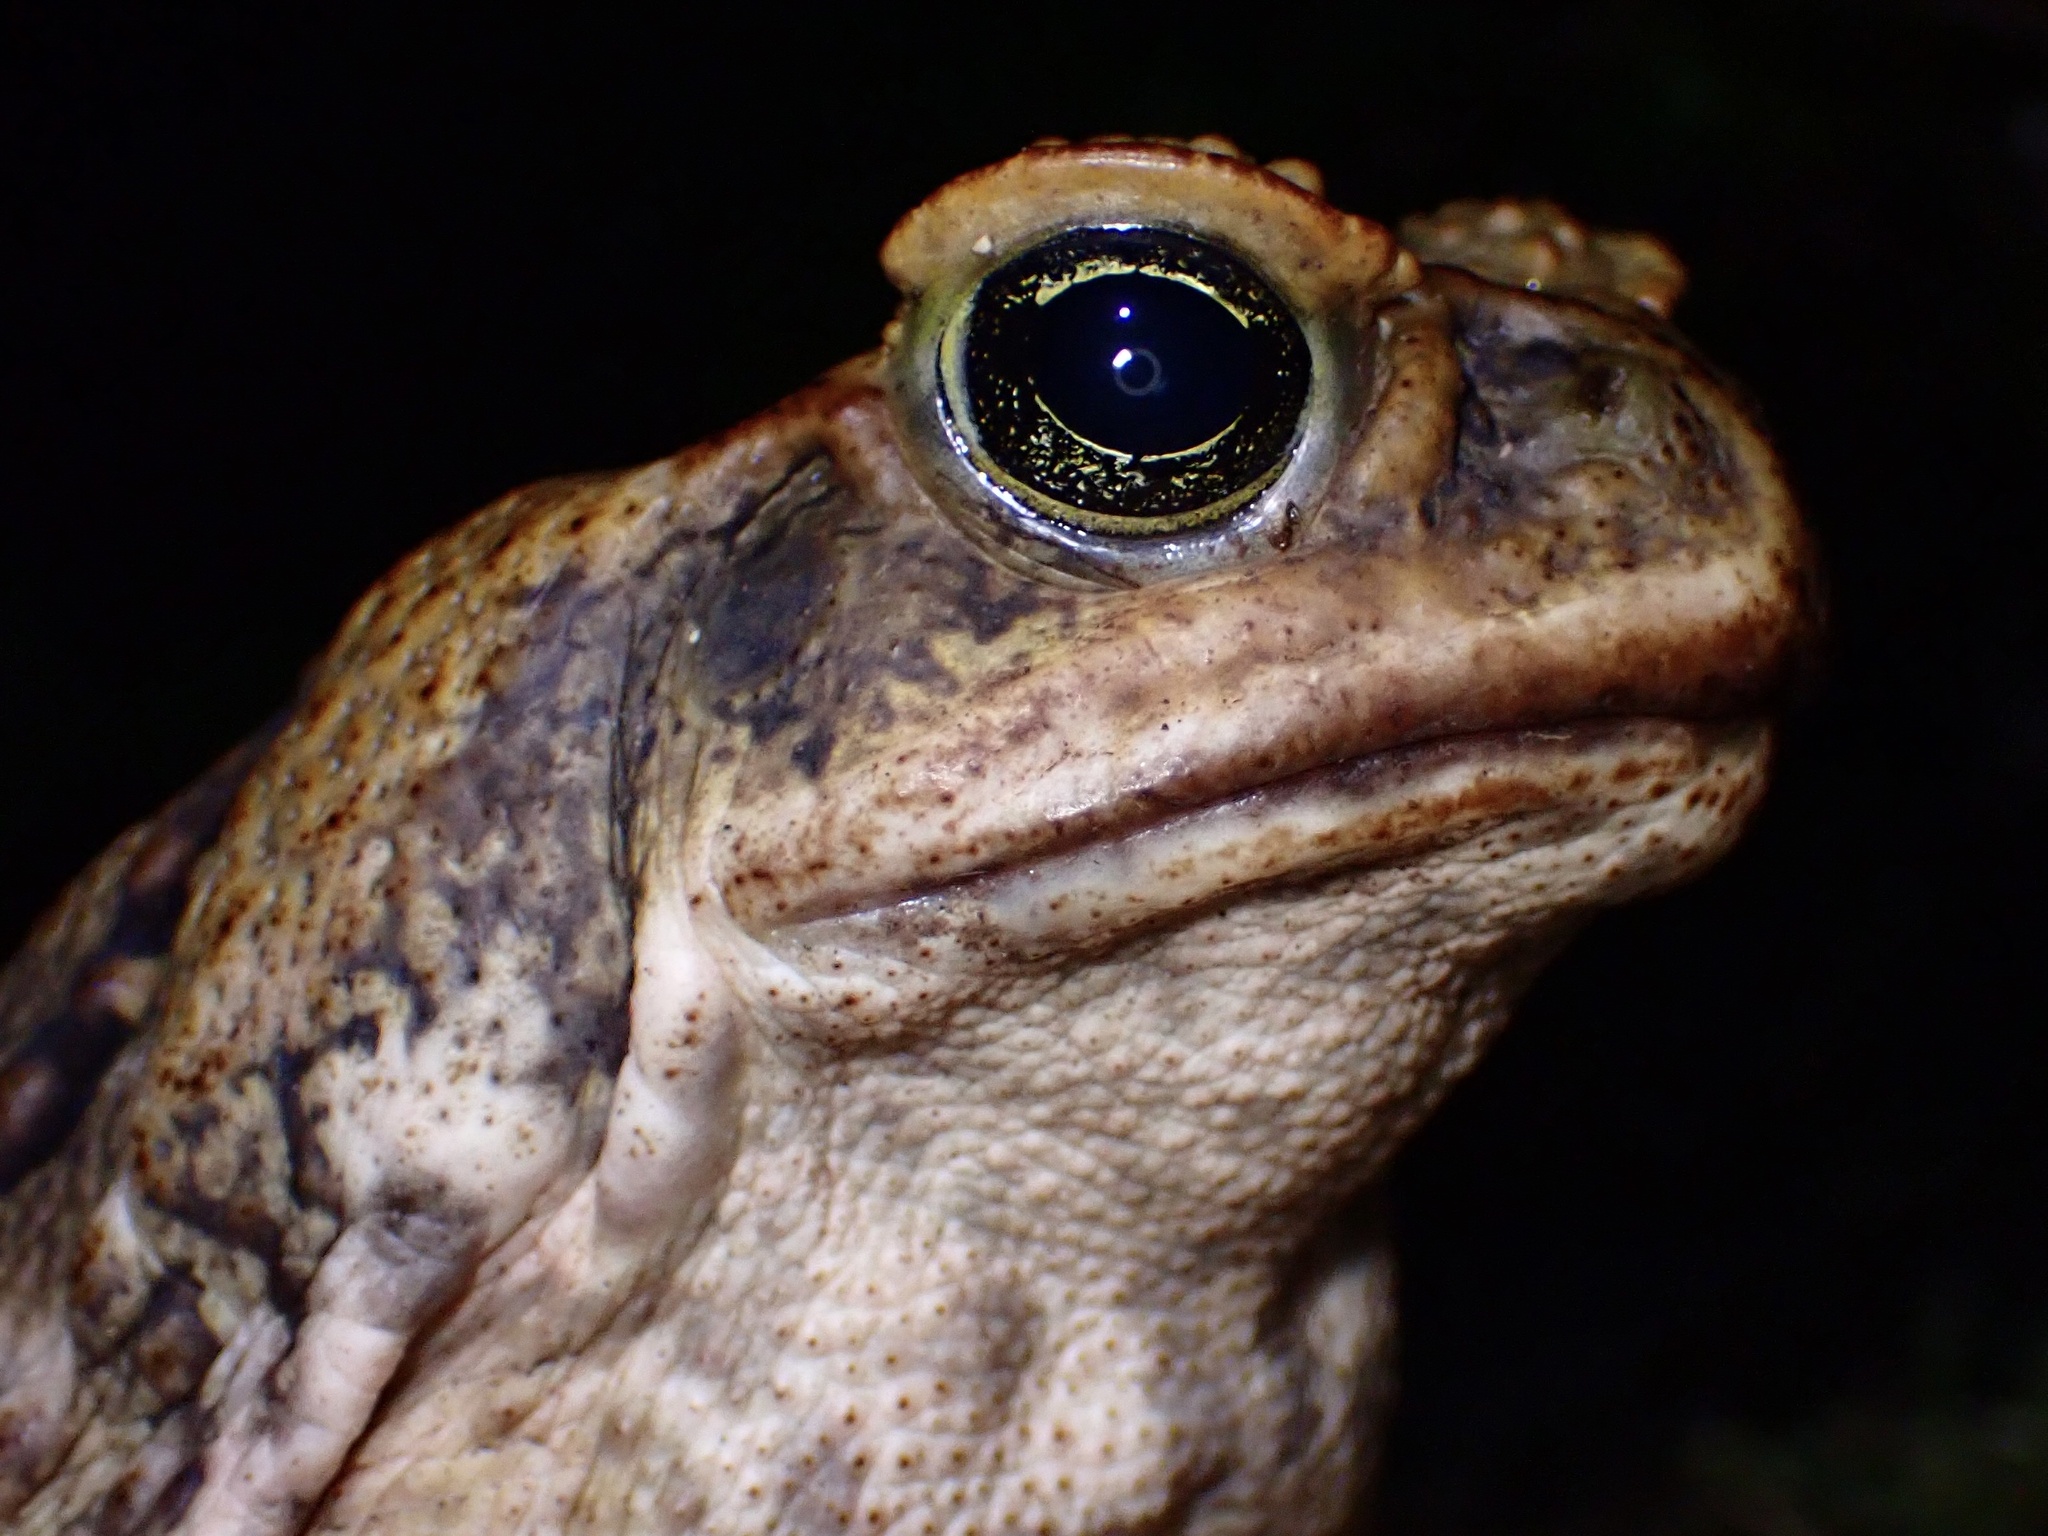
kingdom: Animalia
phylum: Chordata
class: Amphibia
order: Anura
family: Bufonidae
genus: Rhinella
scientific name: Rhinella marina
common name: Cane toad
